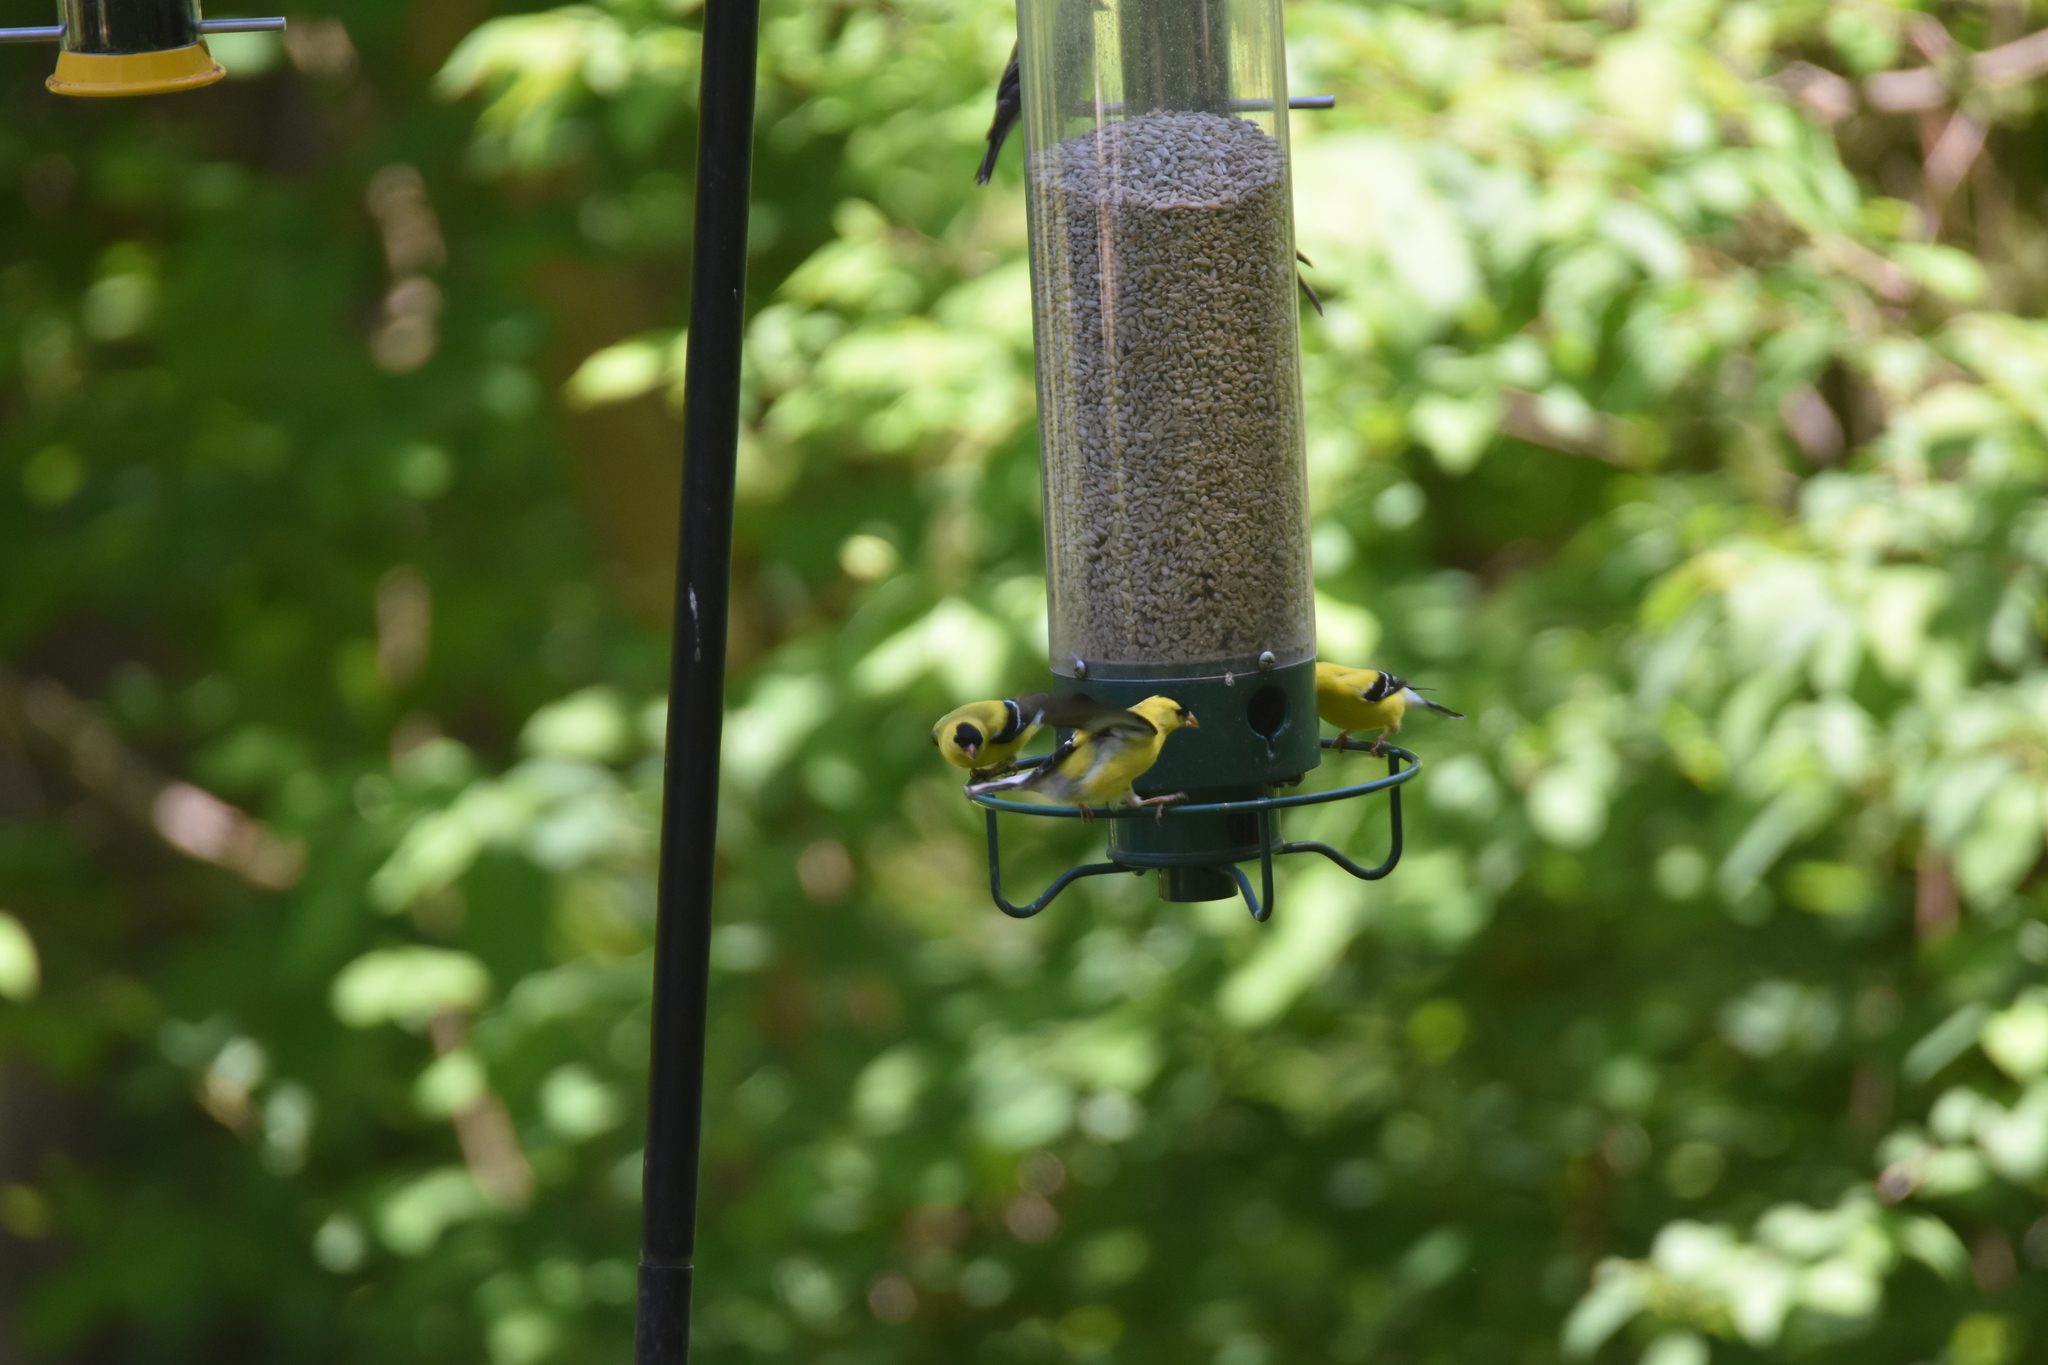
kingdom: Animalia
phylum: Chordata
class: Aves
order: Passeriformes
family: Fringillidae
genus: Spinus
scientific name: Spinus tristis
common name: American goldfinch
